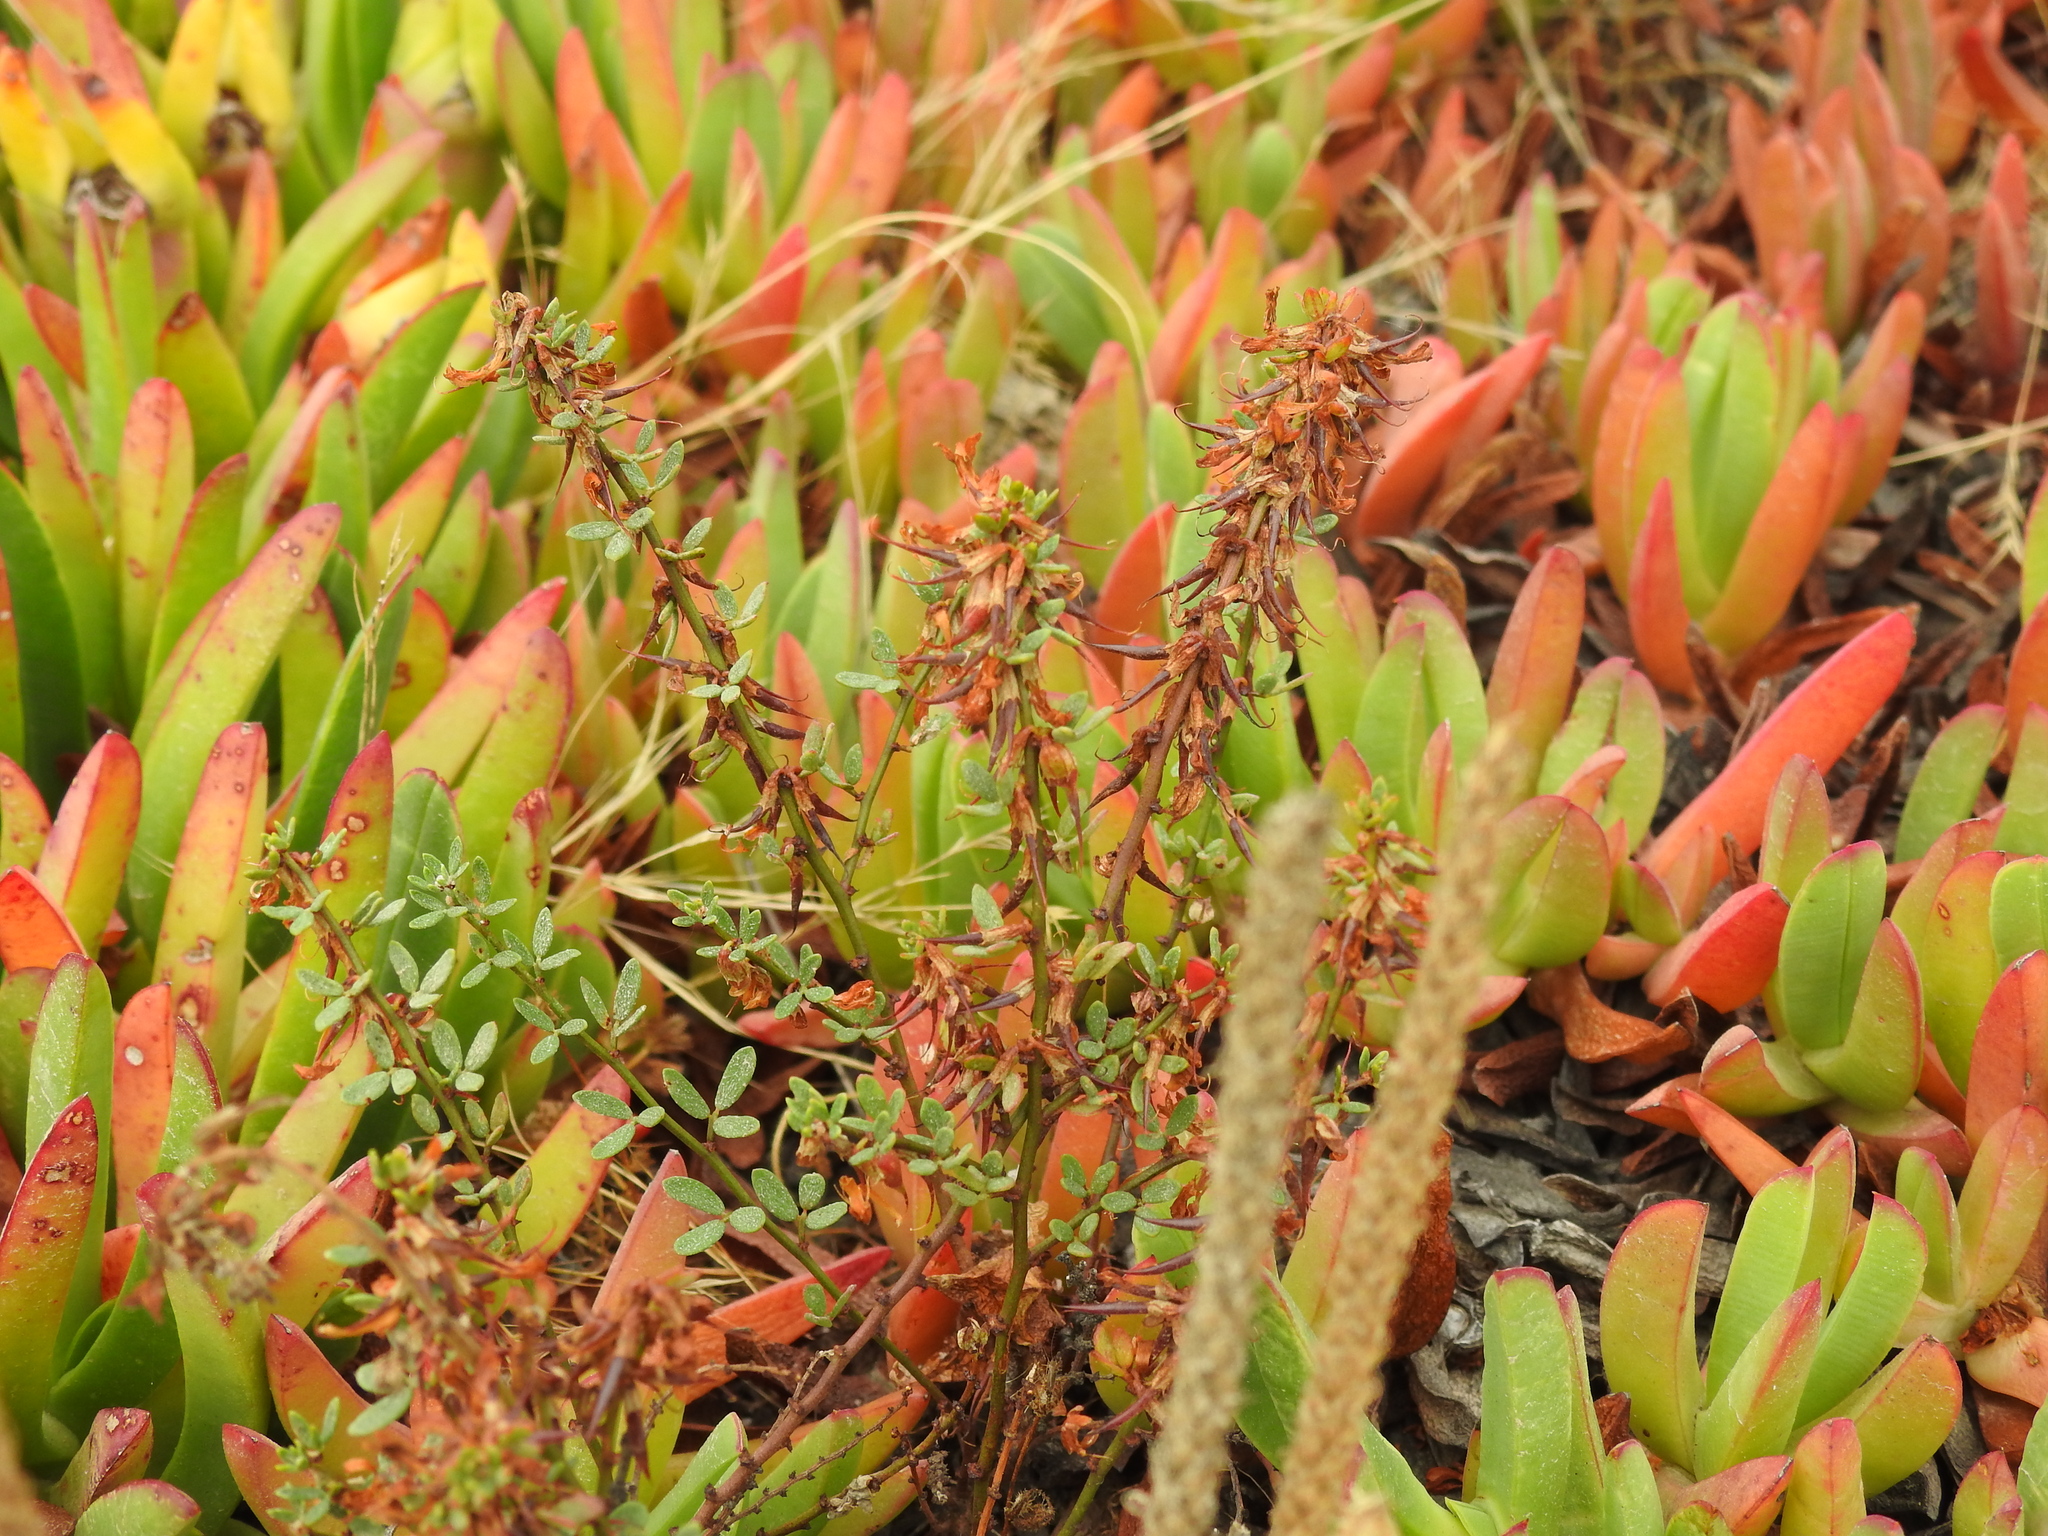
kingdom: Plantae
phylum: Tracheophyta
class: Magnoliopsida
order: Fabales
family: Fabaceae
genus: Acmispon
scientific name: Acmispon glaber
